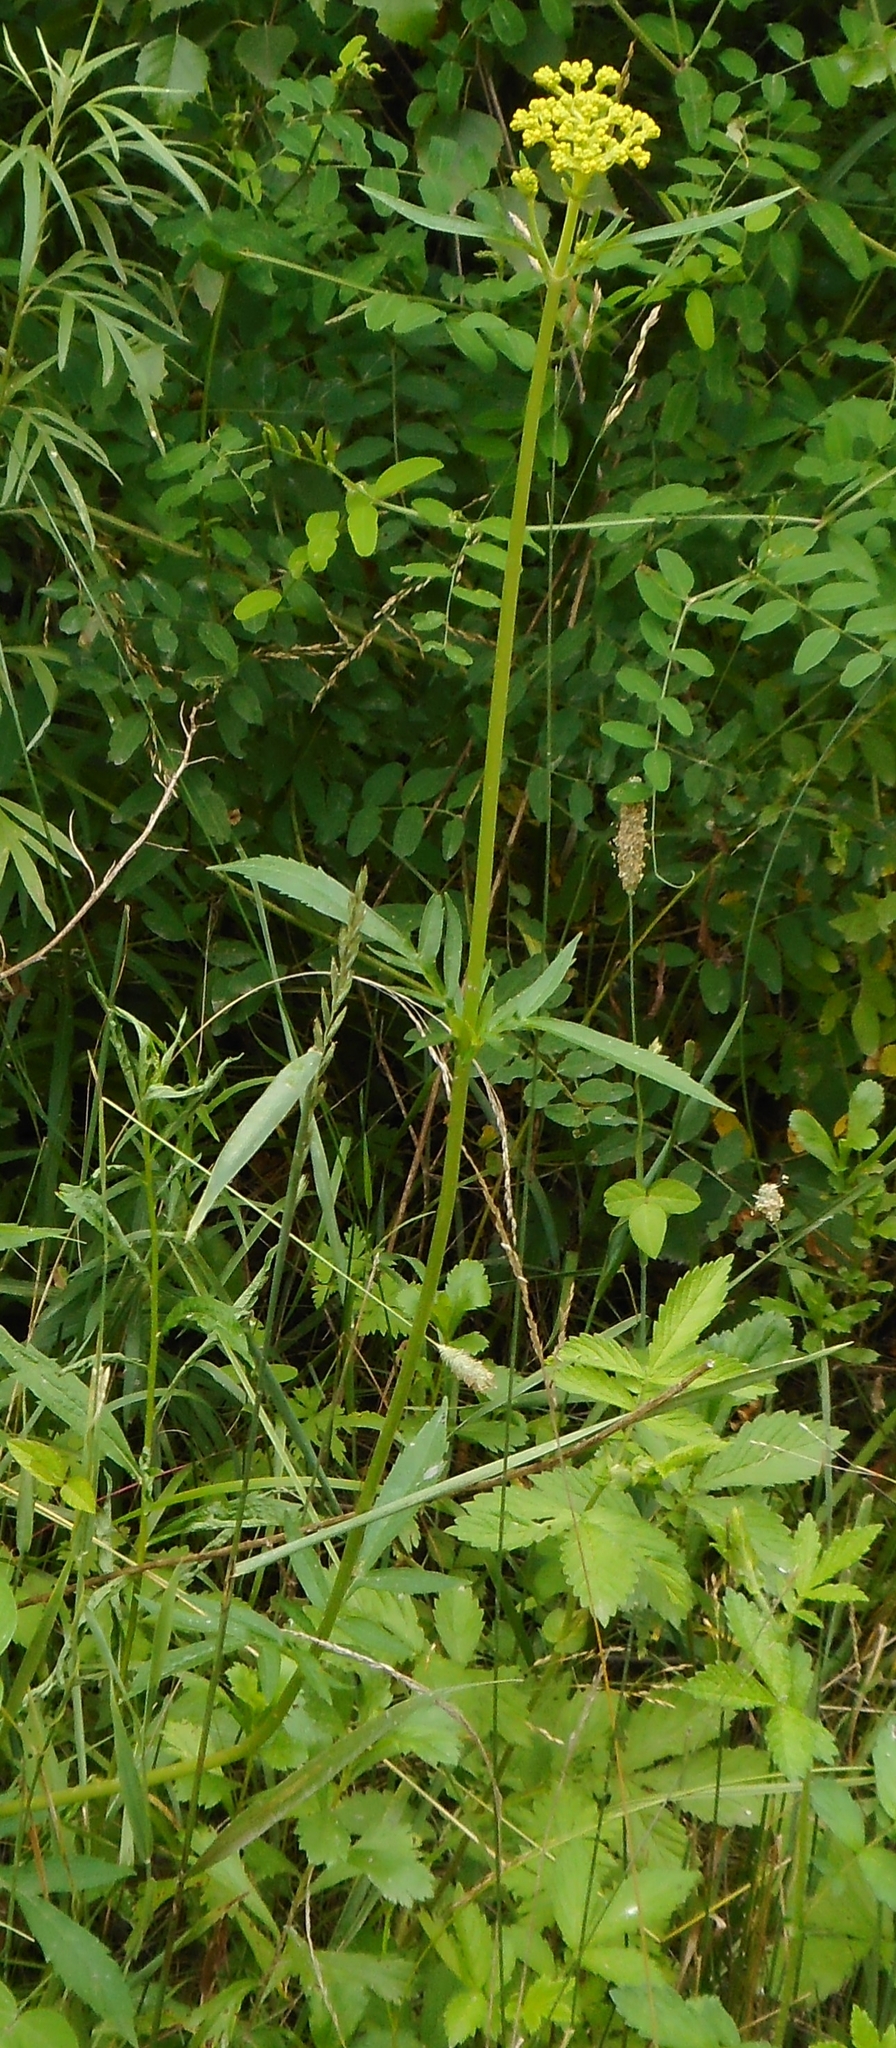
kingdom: Plantae
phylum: Tracheophyta
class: Magnoliopsida
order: Dipsacales
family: Caprifoliaceae
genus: Patrinia
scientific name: Patrinia scabiosifolia
